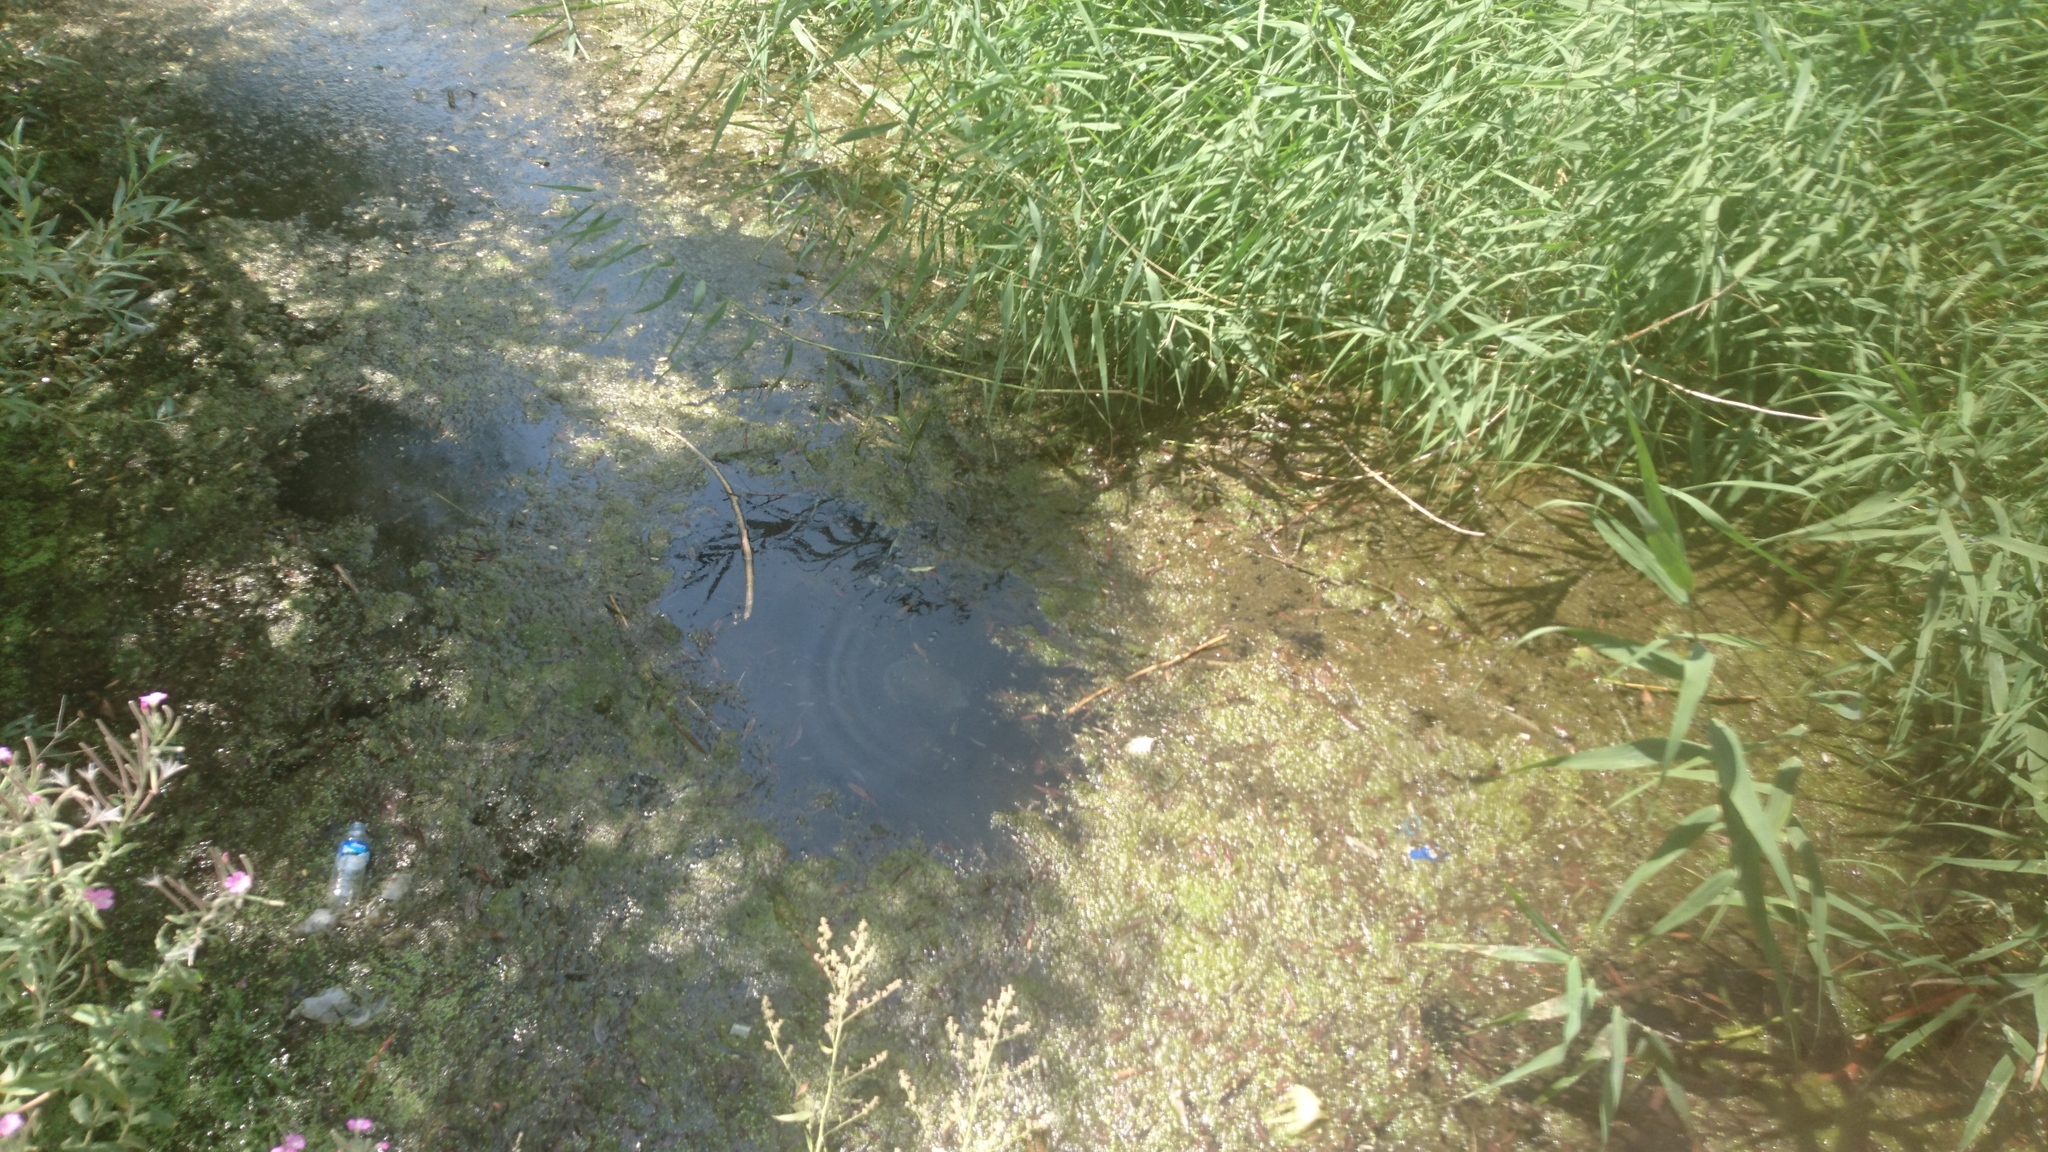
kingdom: Animalia
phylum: Chordata
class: Testudines
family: Geoemydidae
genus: Mauremys
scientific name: Mauremys caspica
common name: Caspian turtle
